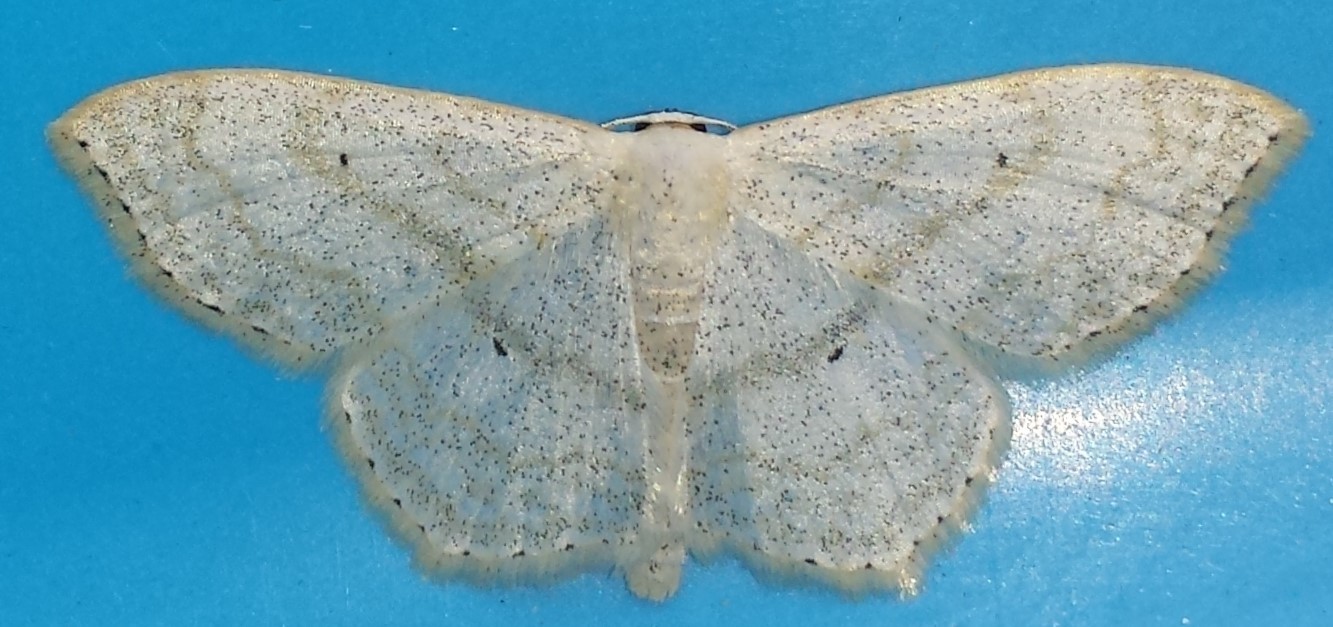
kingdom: Animalia
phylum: Arthropoda
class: Insecta
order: Lepidoptera
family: Geometridae
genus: Scopula
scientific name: Scopula limboundata
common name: Large lace border
